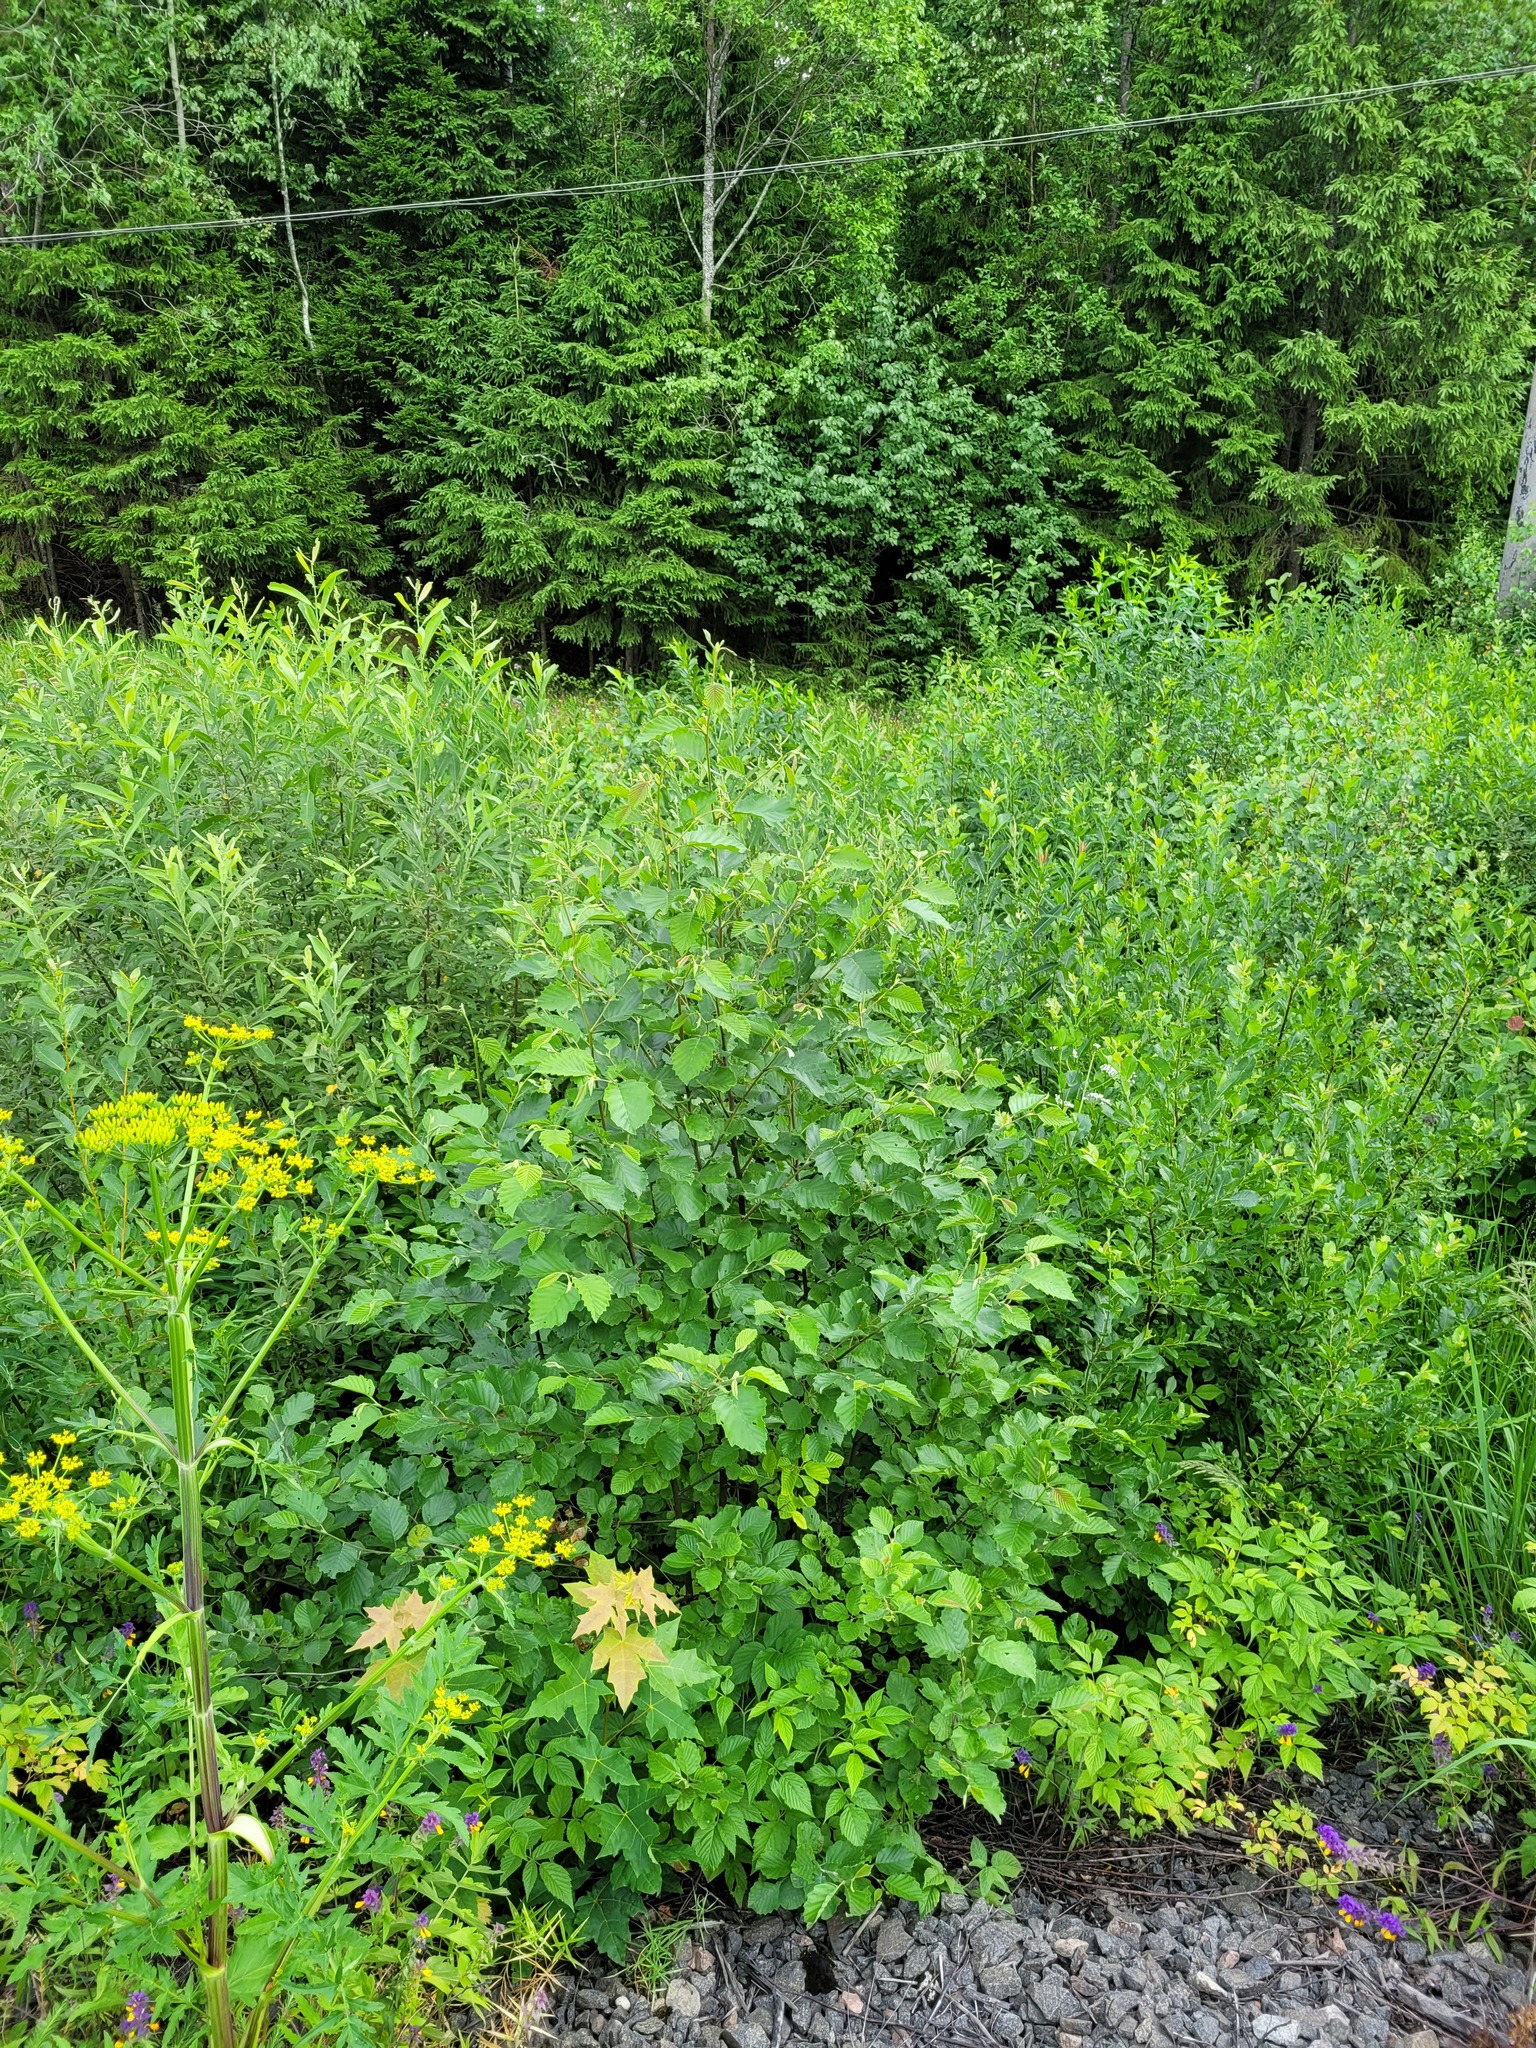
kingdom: Plantae
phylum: Tracheophyta
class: Magnoliopsida
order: Fagales
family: Betulaceae
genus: Alnus
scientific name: Alnus incana
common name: Grey alder
